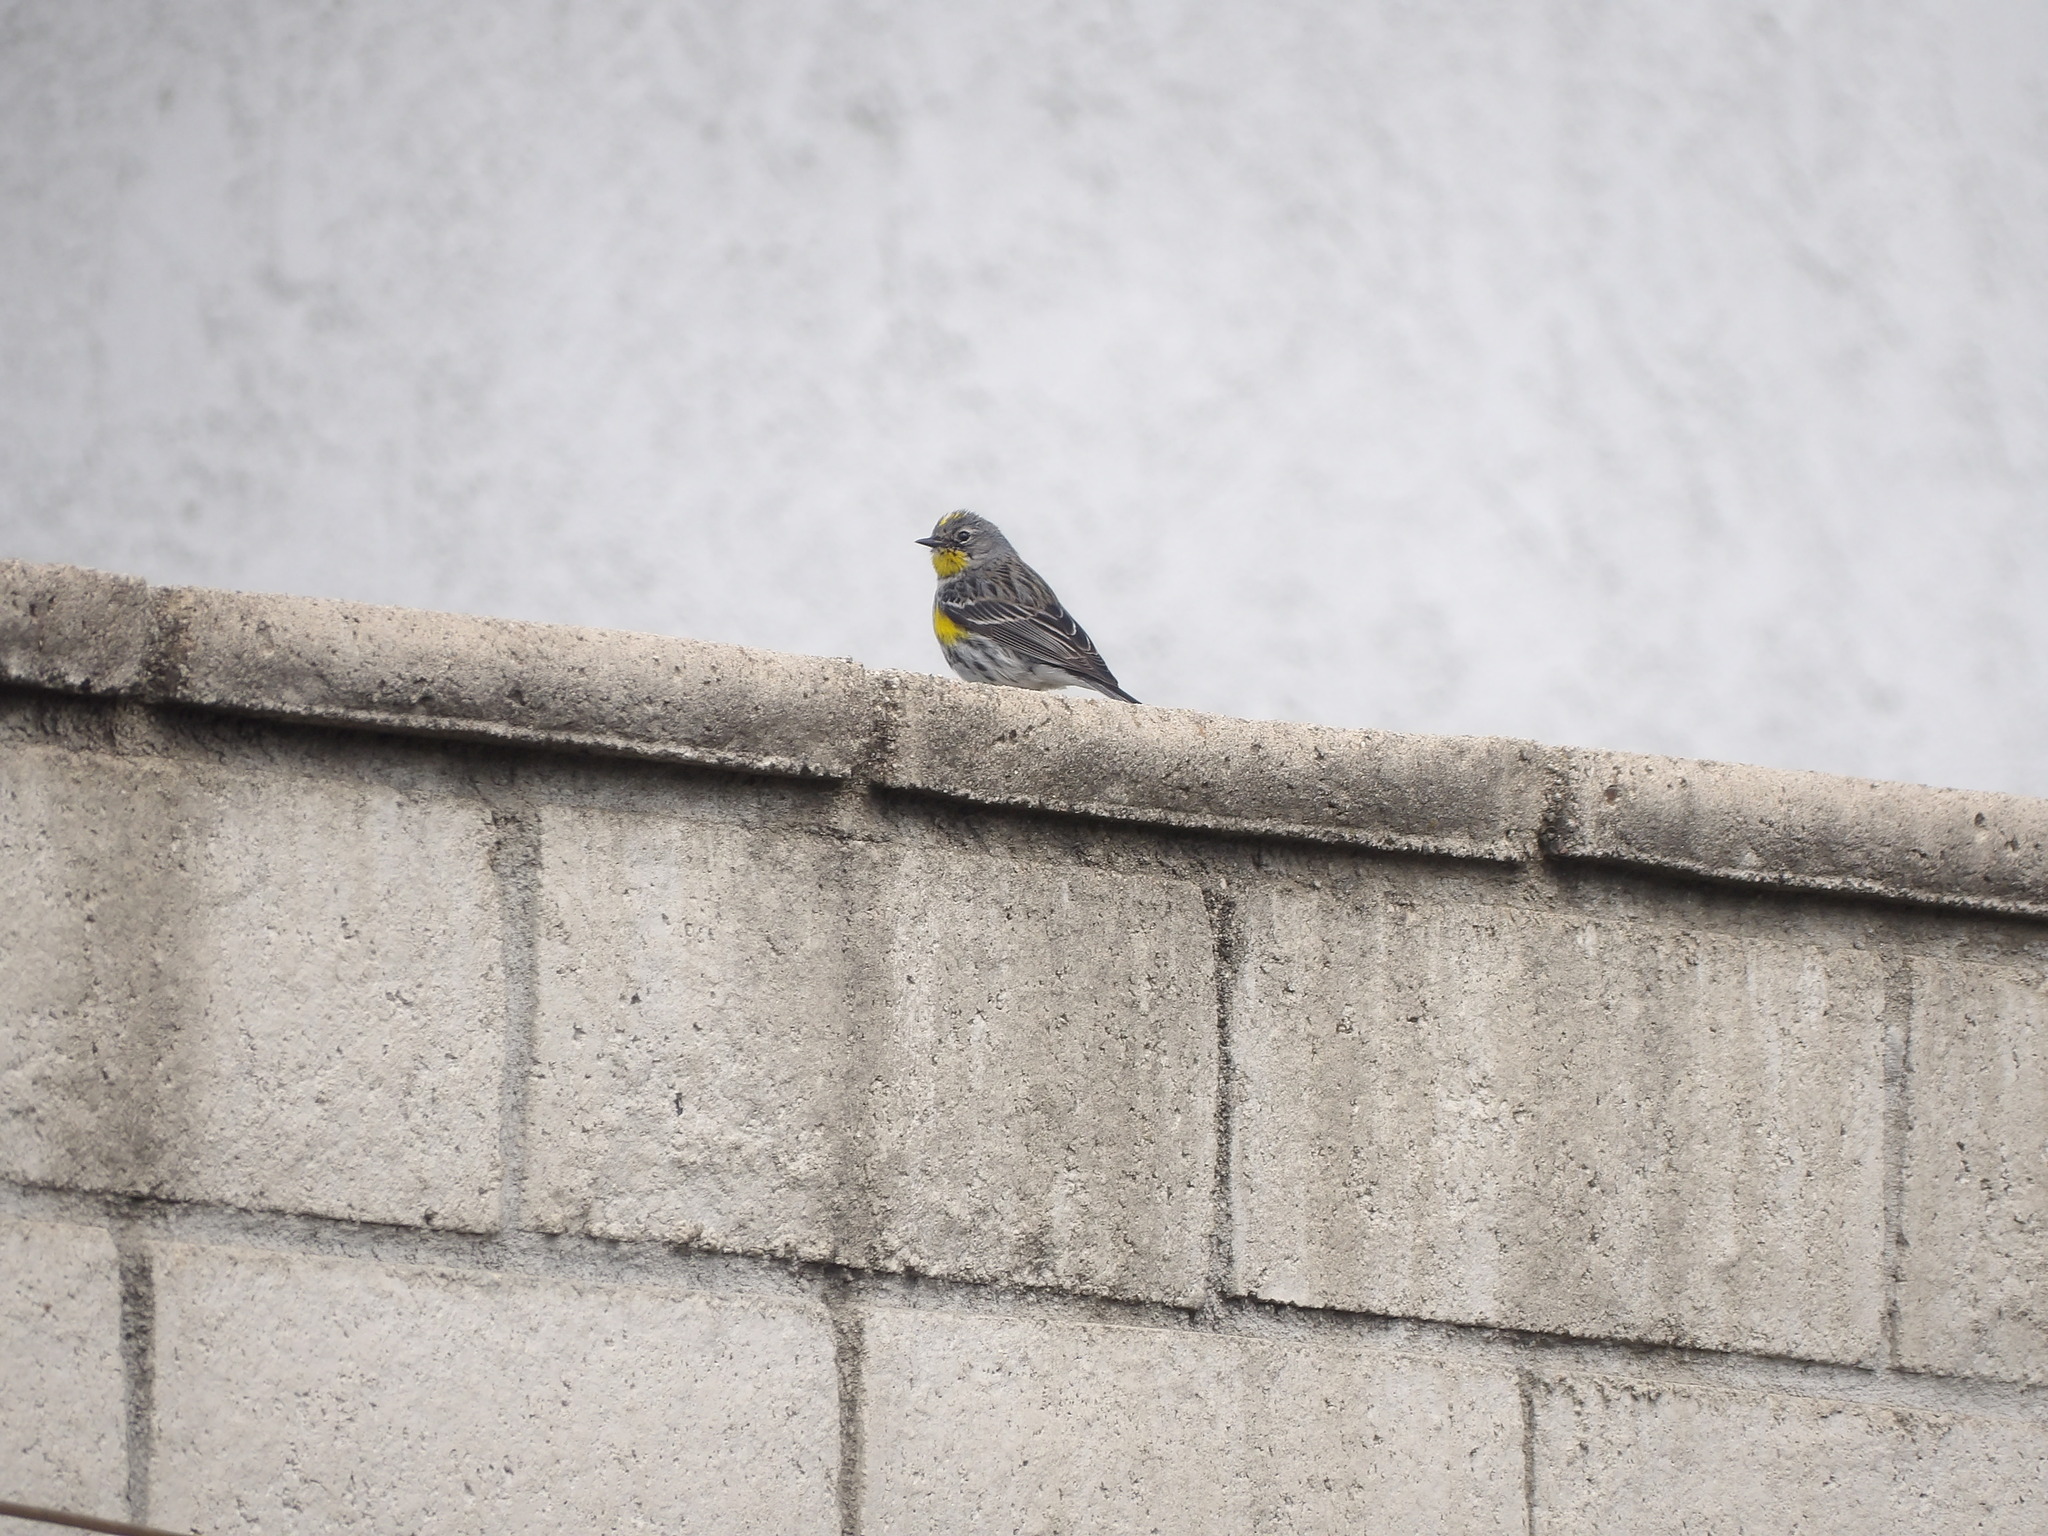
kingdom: Animalia
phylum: Chordata
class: Aves
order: Passeriformes
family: Parulidae
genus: Setophaga
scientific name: Setophaga coronata
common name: Myrtle warbler
